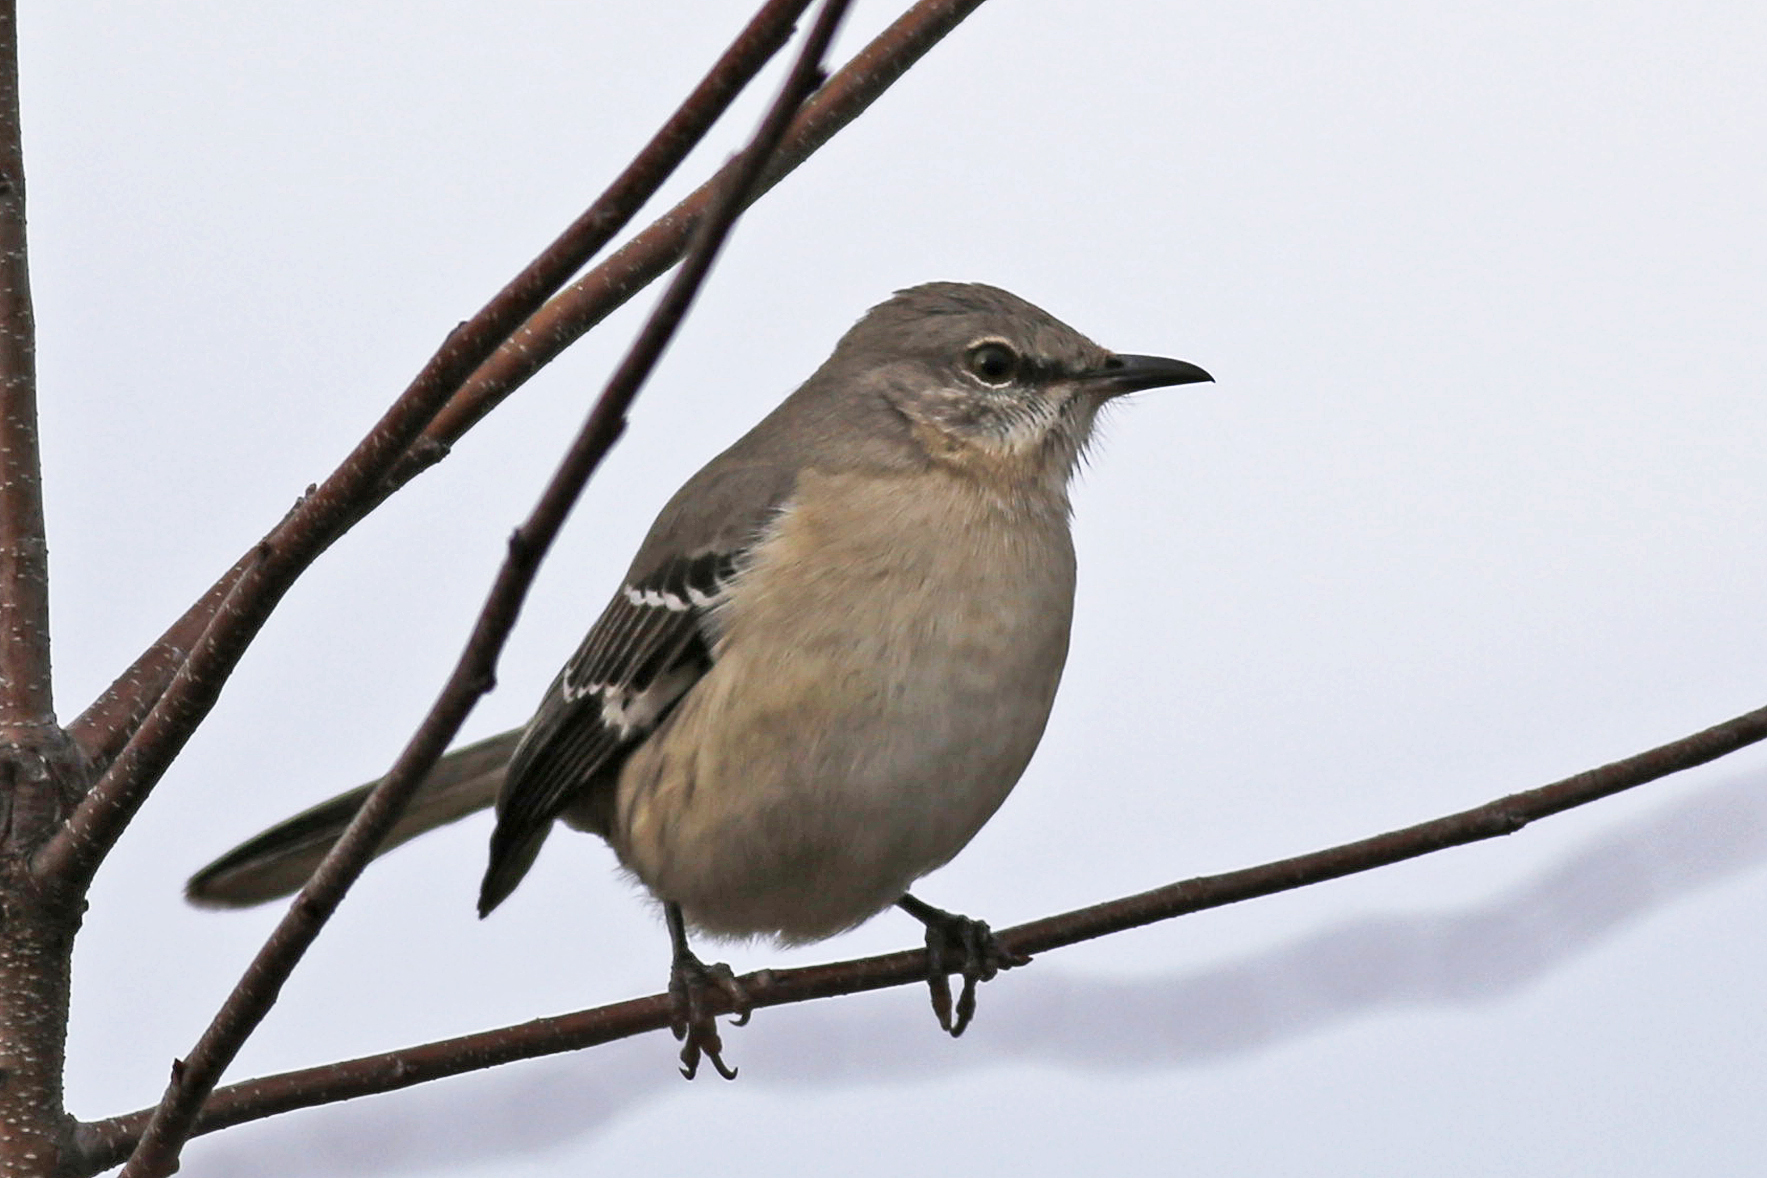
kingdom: Animalia
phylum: Chordata
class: Aves
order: Passeriformes
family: Mimidae
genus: Mimus
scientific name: Mimus polyglottos
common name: Northern mockingbird
